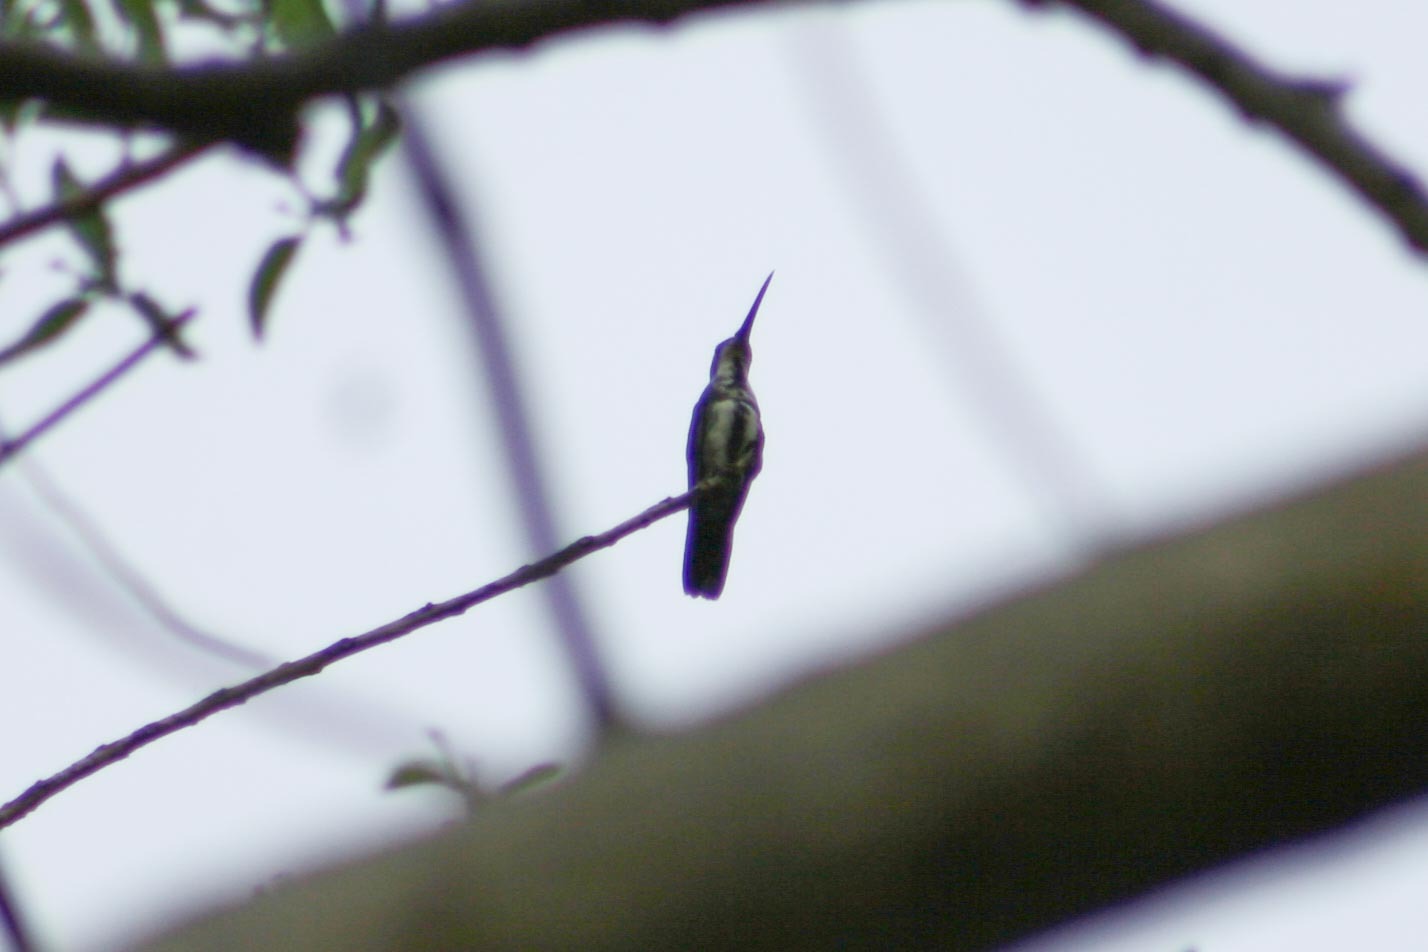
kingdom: Animalia
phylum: Chordata
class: Aves
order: Apodiformes
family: Trochilidae
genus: Anthracothorax
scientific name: Anthracothorax prevostii
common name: Green-breasted mango
